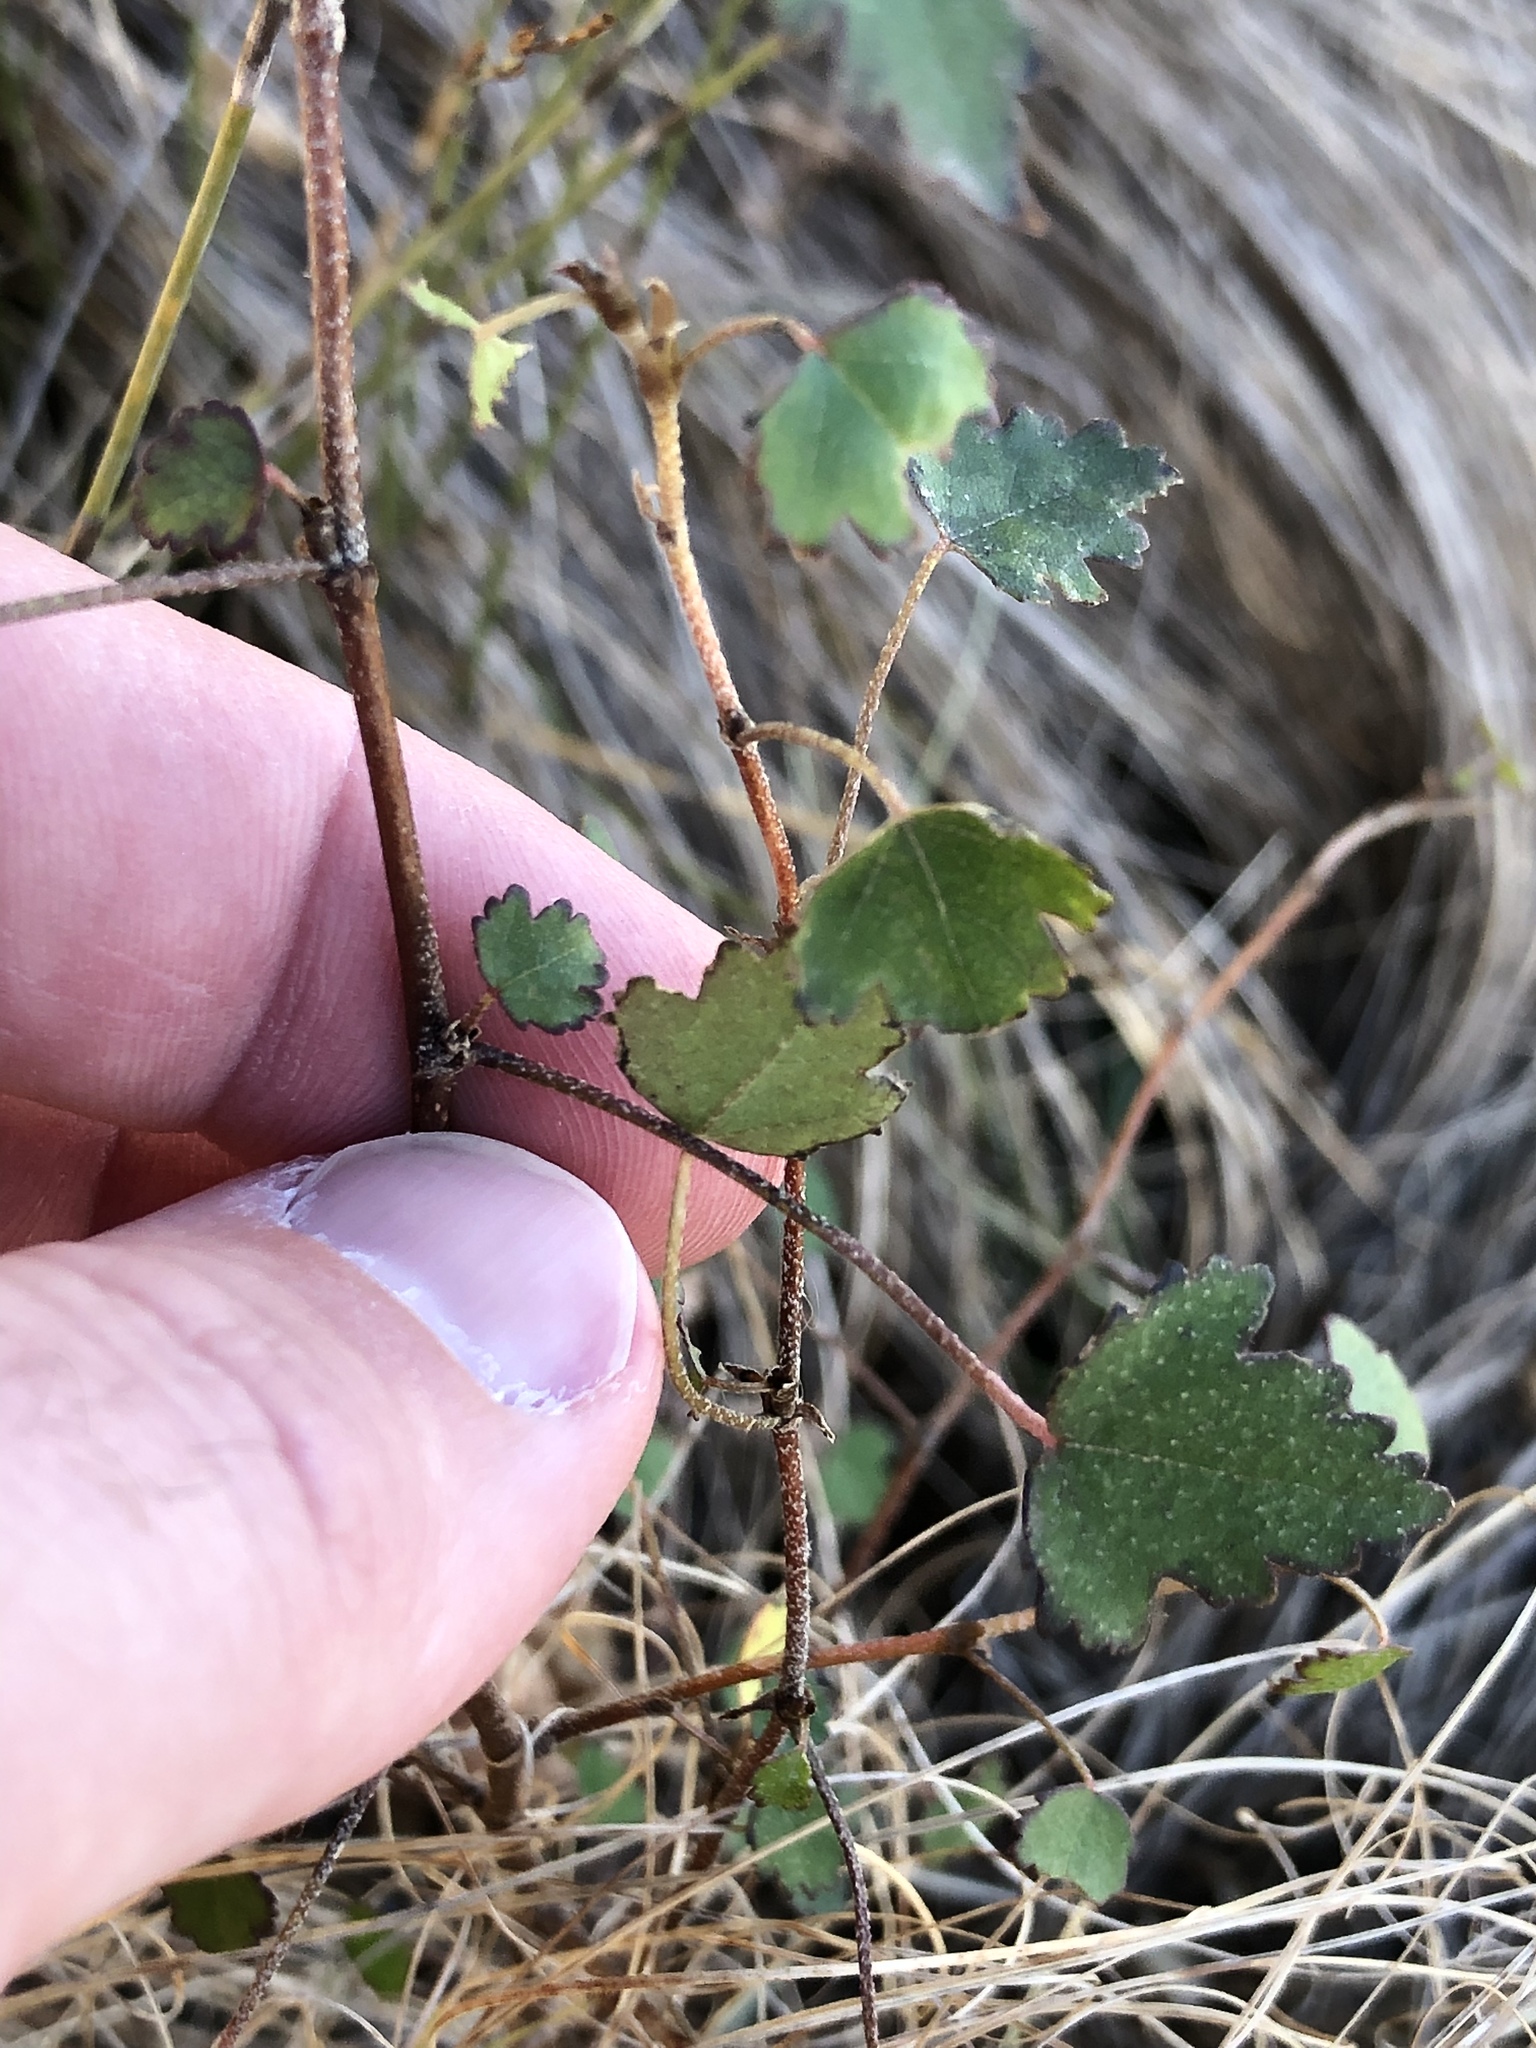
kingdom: Plantae
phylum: Tracheophyta
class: Magnoliopsida
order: Malvales
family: Malvaceae
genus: Plagianthus
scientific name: Plagianthus regius
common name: Manatu
